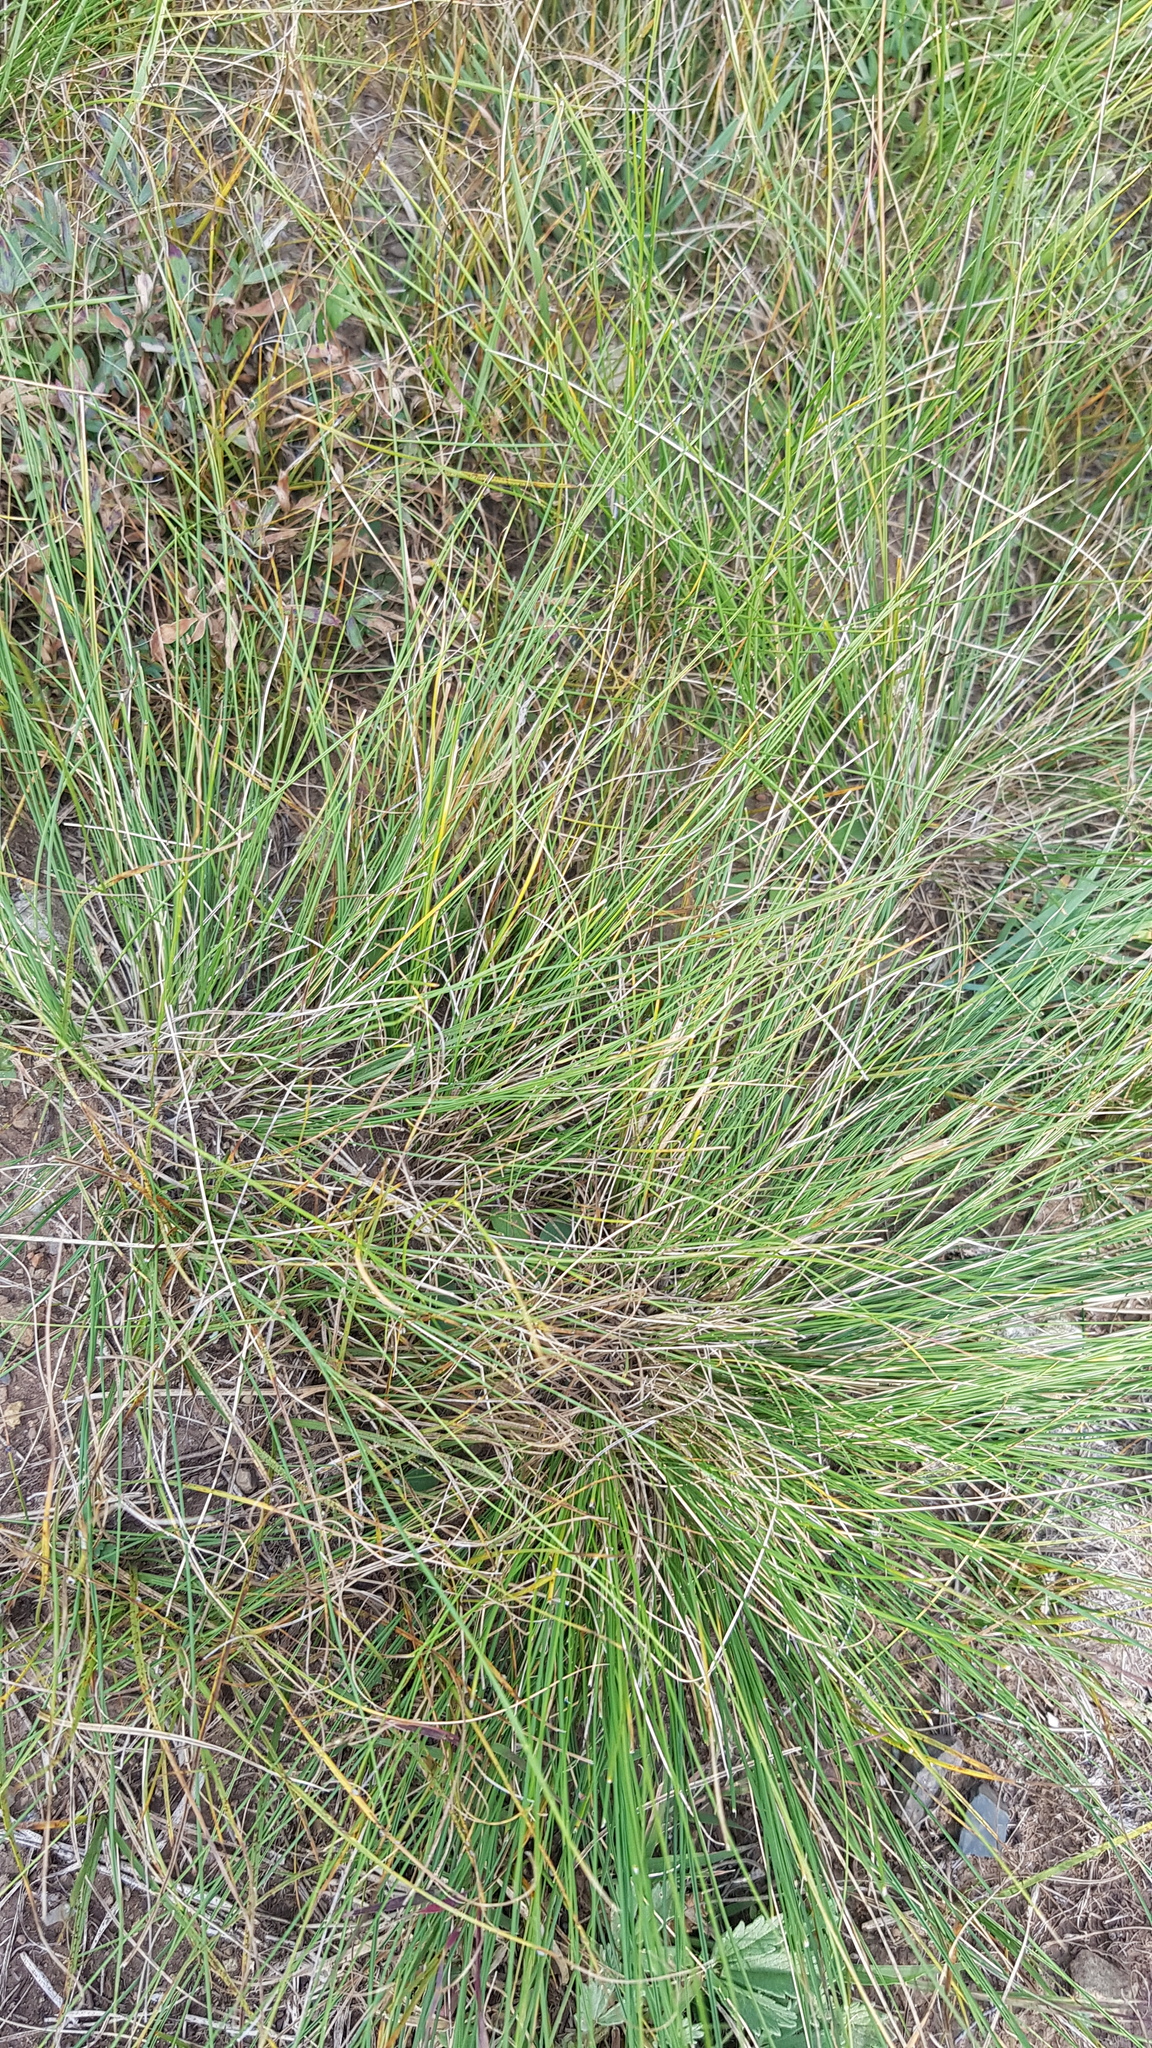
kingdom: Plantae
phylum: Tracheophyta
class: Liliopsida
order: Poales
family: Poaceae
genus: Stipa
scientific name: Stipa krylovii
